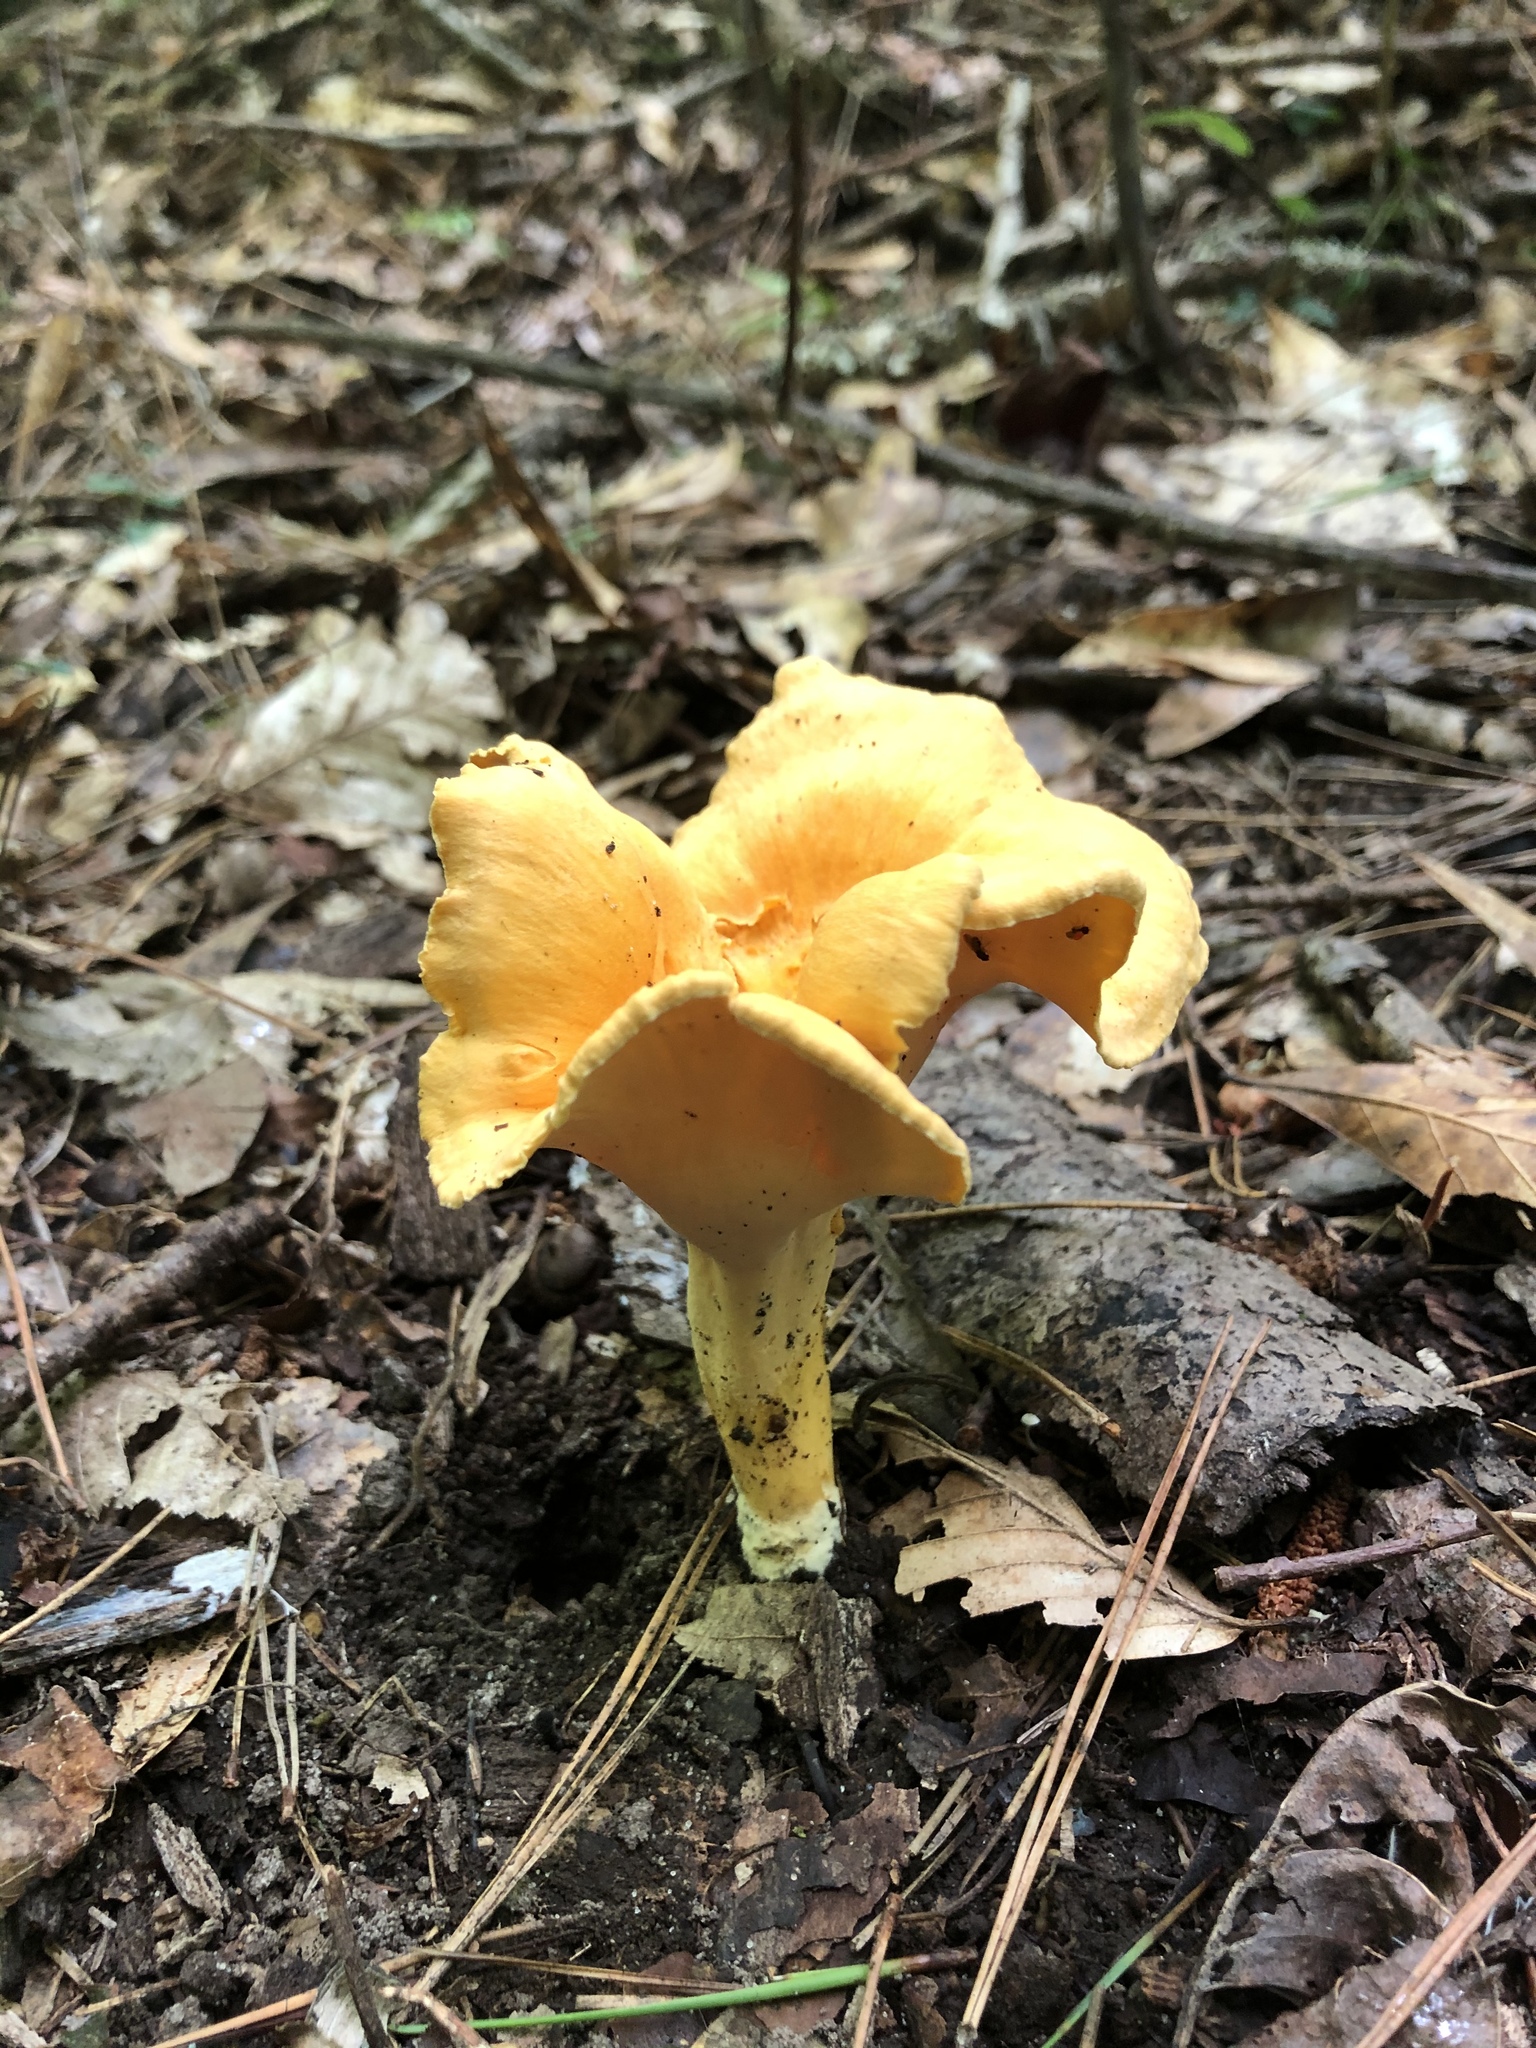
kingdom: Fungi
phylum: Basidiomycota
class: Agaricomycetes
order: Cantharellales
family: Hydnaceae
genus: Cantharellus
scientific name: Cantharellus lateritius
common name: Smooth chanterelle
